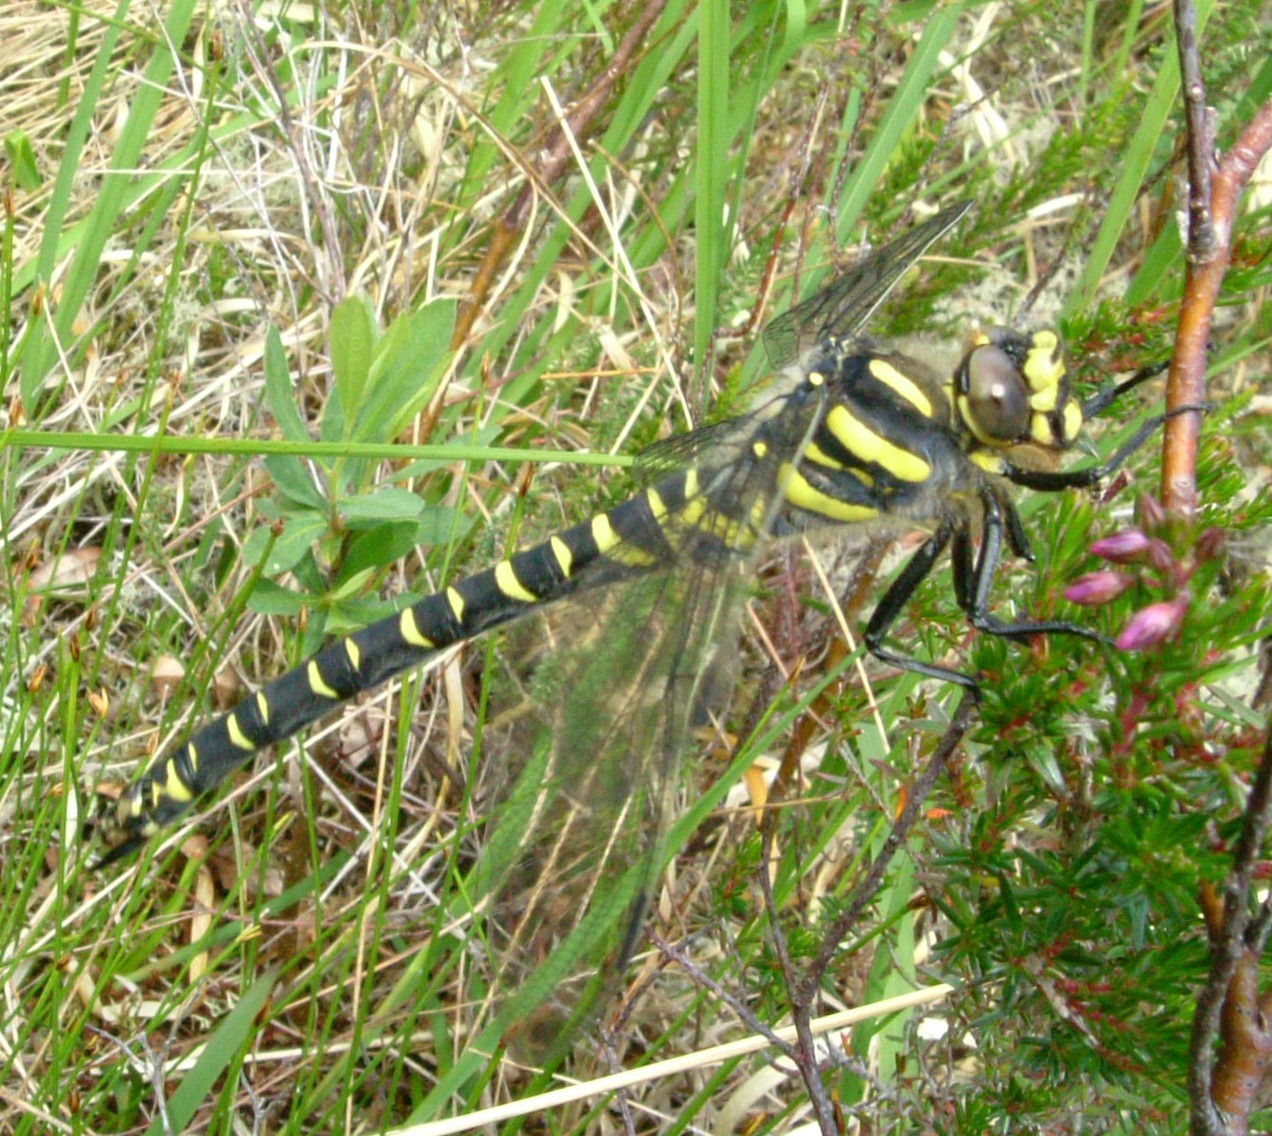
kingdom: Animalia
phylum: Arthropoda
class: Insecta
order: Odonata
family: Cordulegastridae
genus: Cordulegaster
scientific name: Cordulegaster boltonii
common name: Golden-ringed dragonfly
